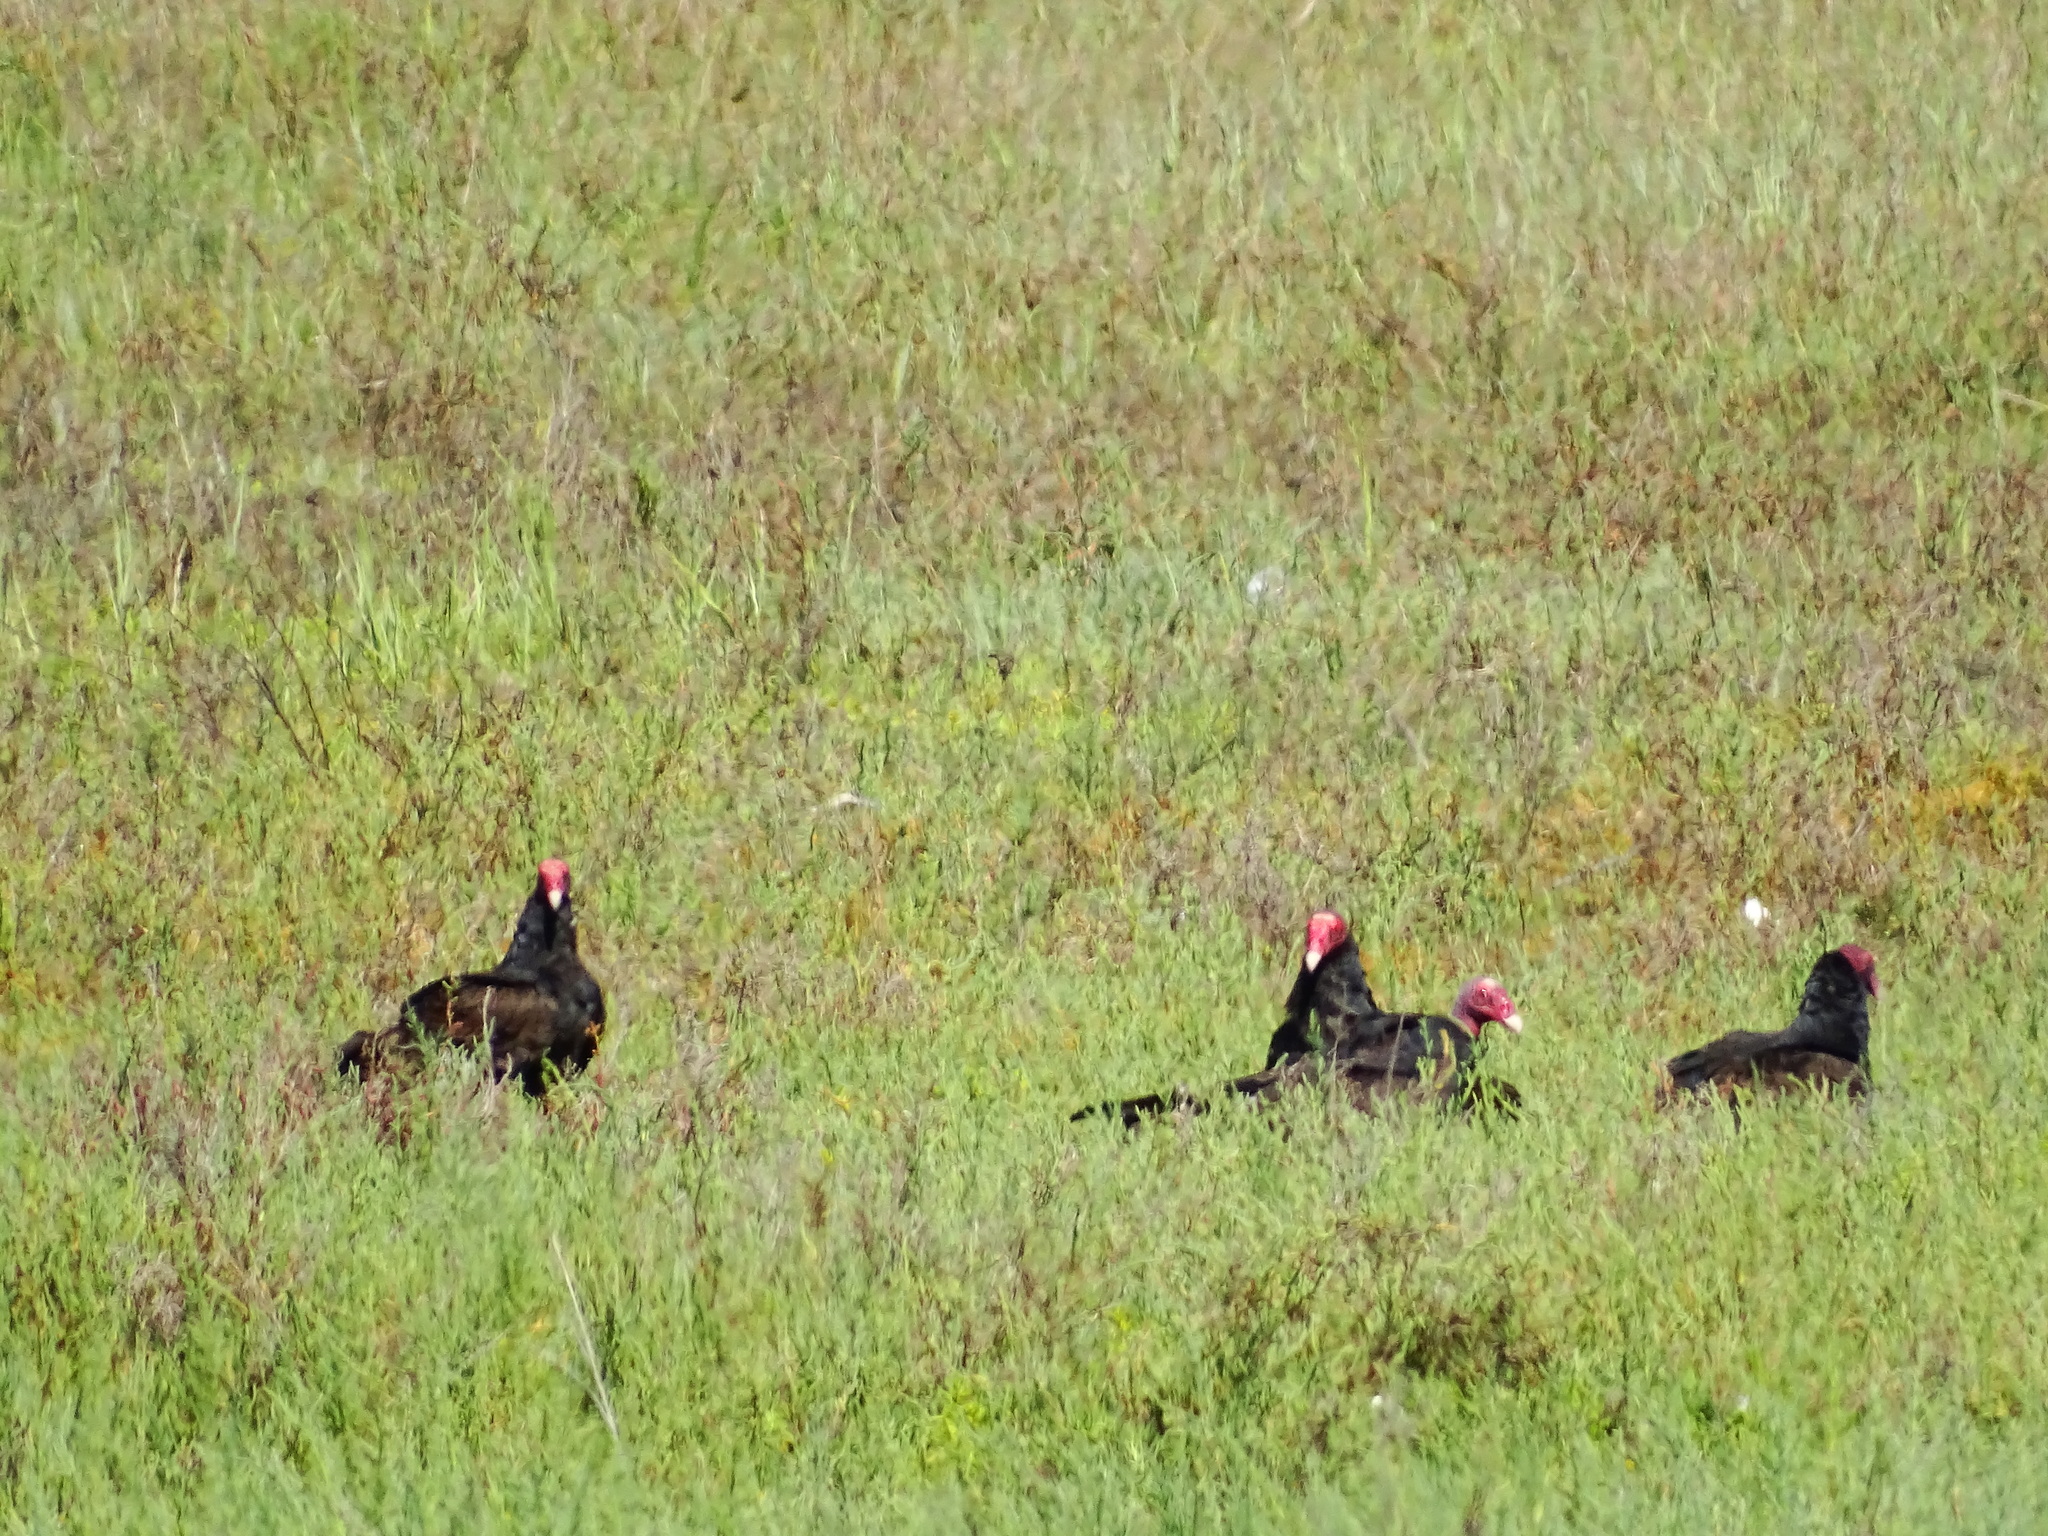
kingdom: Animalia
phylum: Chordata
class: Aves
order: Accipitriformes
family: Cathartidae
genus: Cathartes
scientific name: Cathartes aura
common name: Turkey vulture
